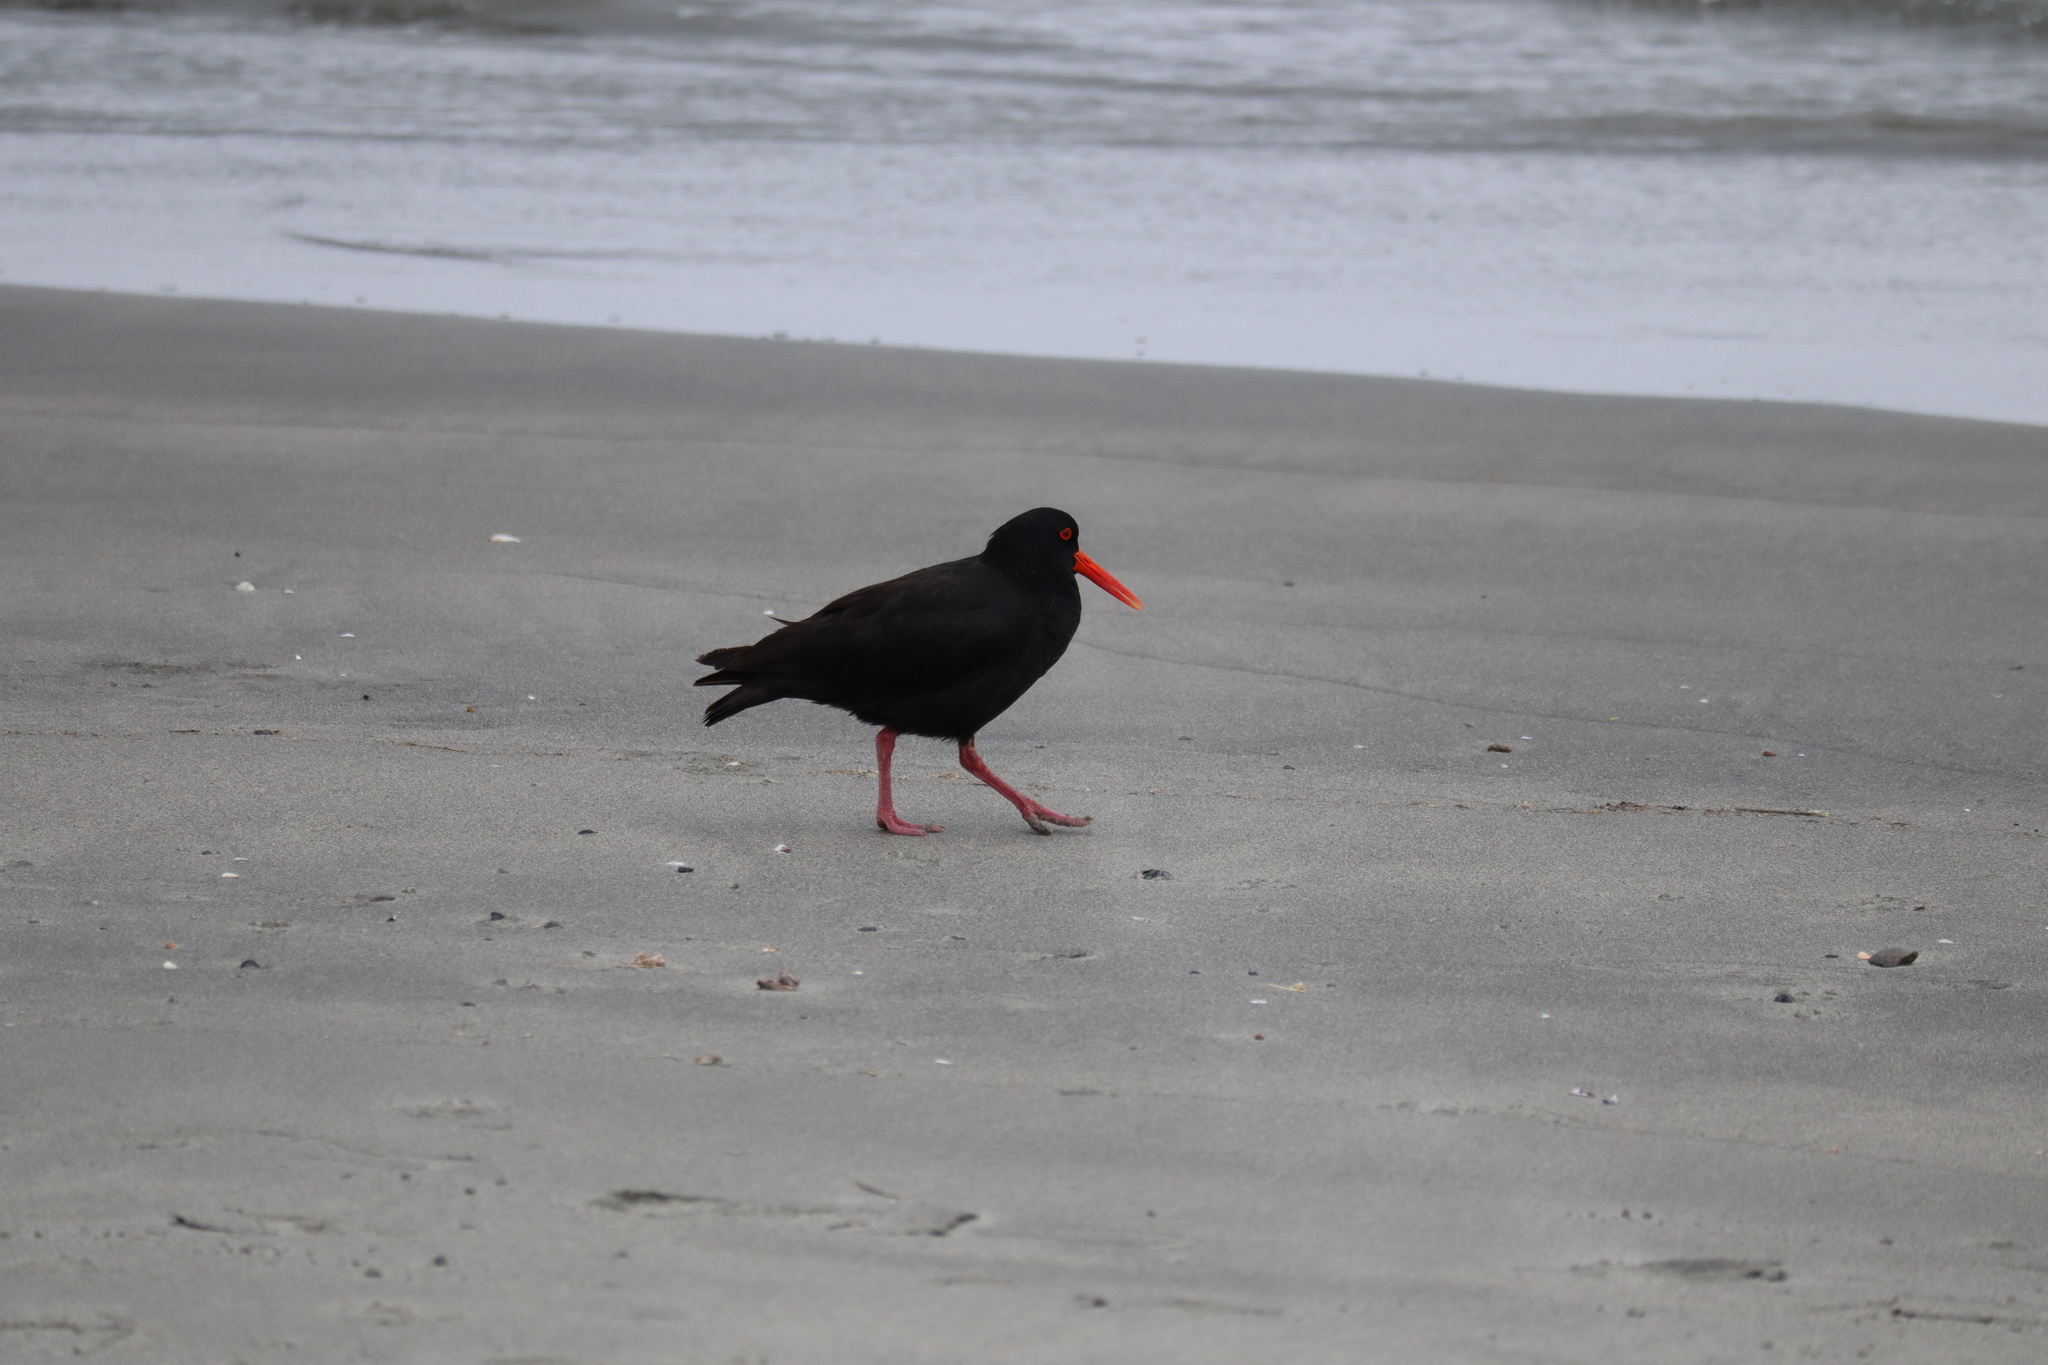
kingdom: Animalia
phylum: Chordata
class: Aves
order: Charadriiformes
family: Haematopodidae
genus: Haematopus
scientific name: Haematopus unicolor
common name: Variable oystercatcher
